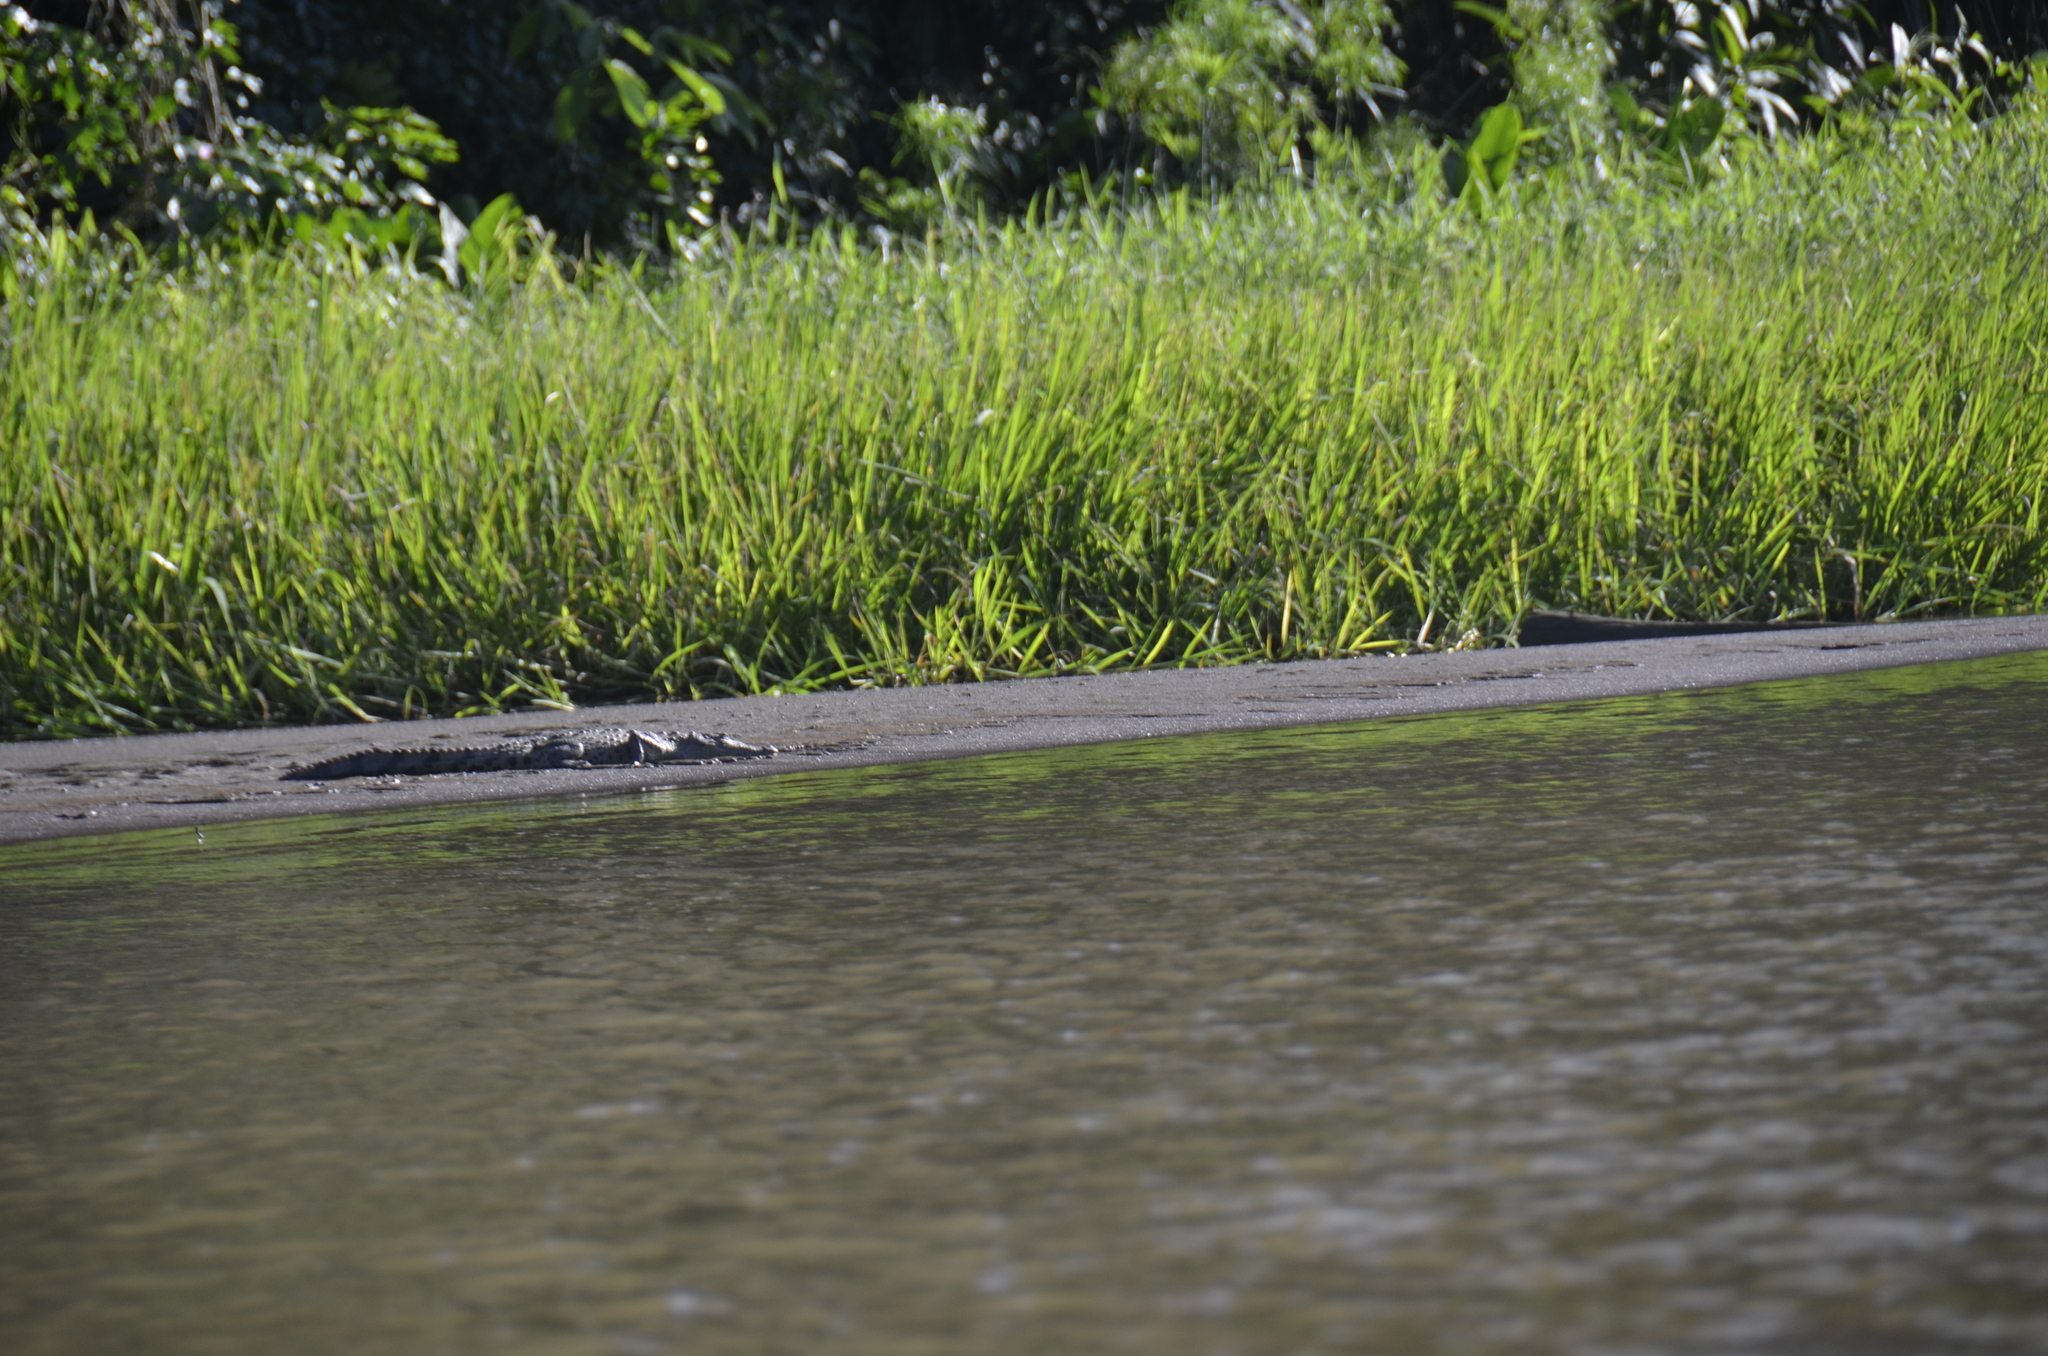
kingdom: Animalia
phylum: Chordata
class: Crocodylia
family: Crocodylidae
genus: Crocodylus
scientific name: Crocodylus acutus
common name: American crocodile
